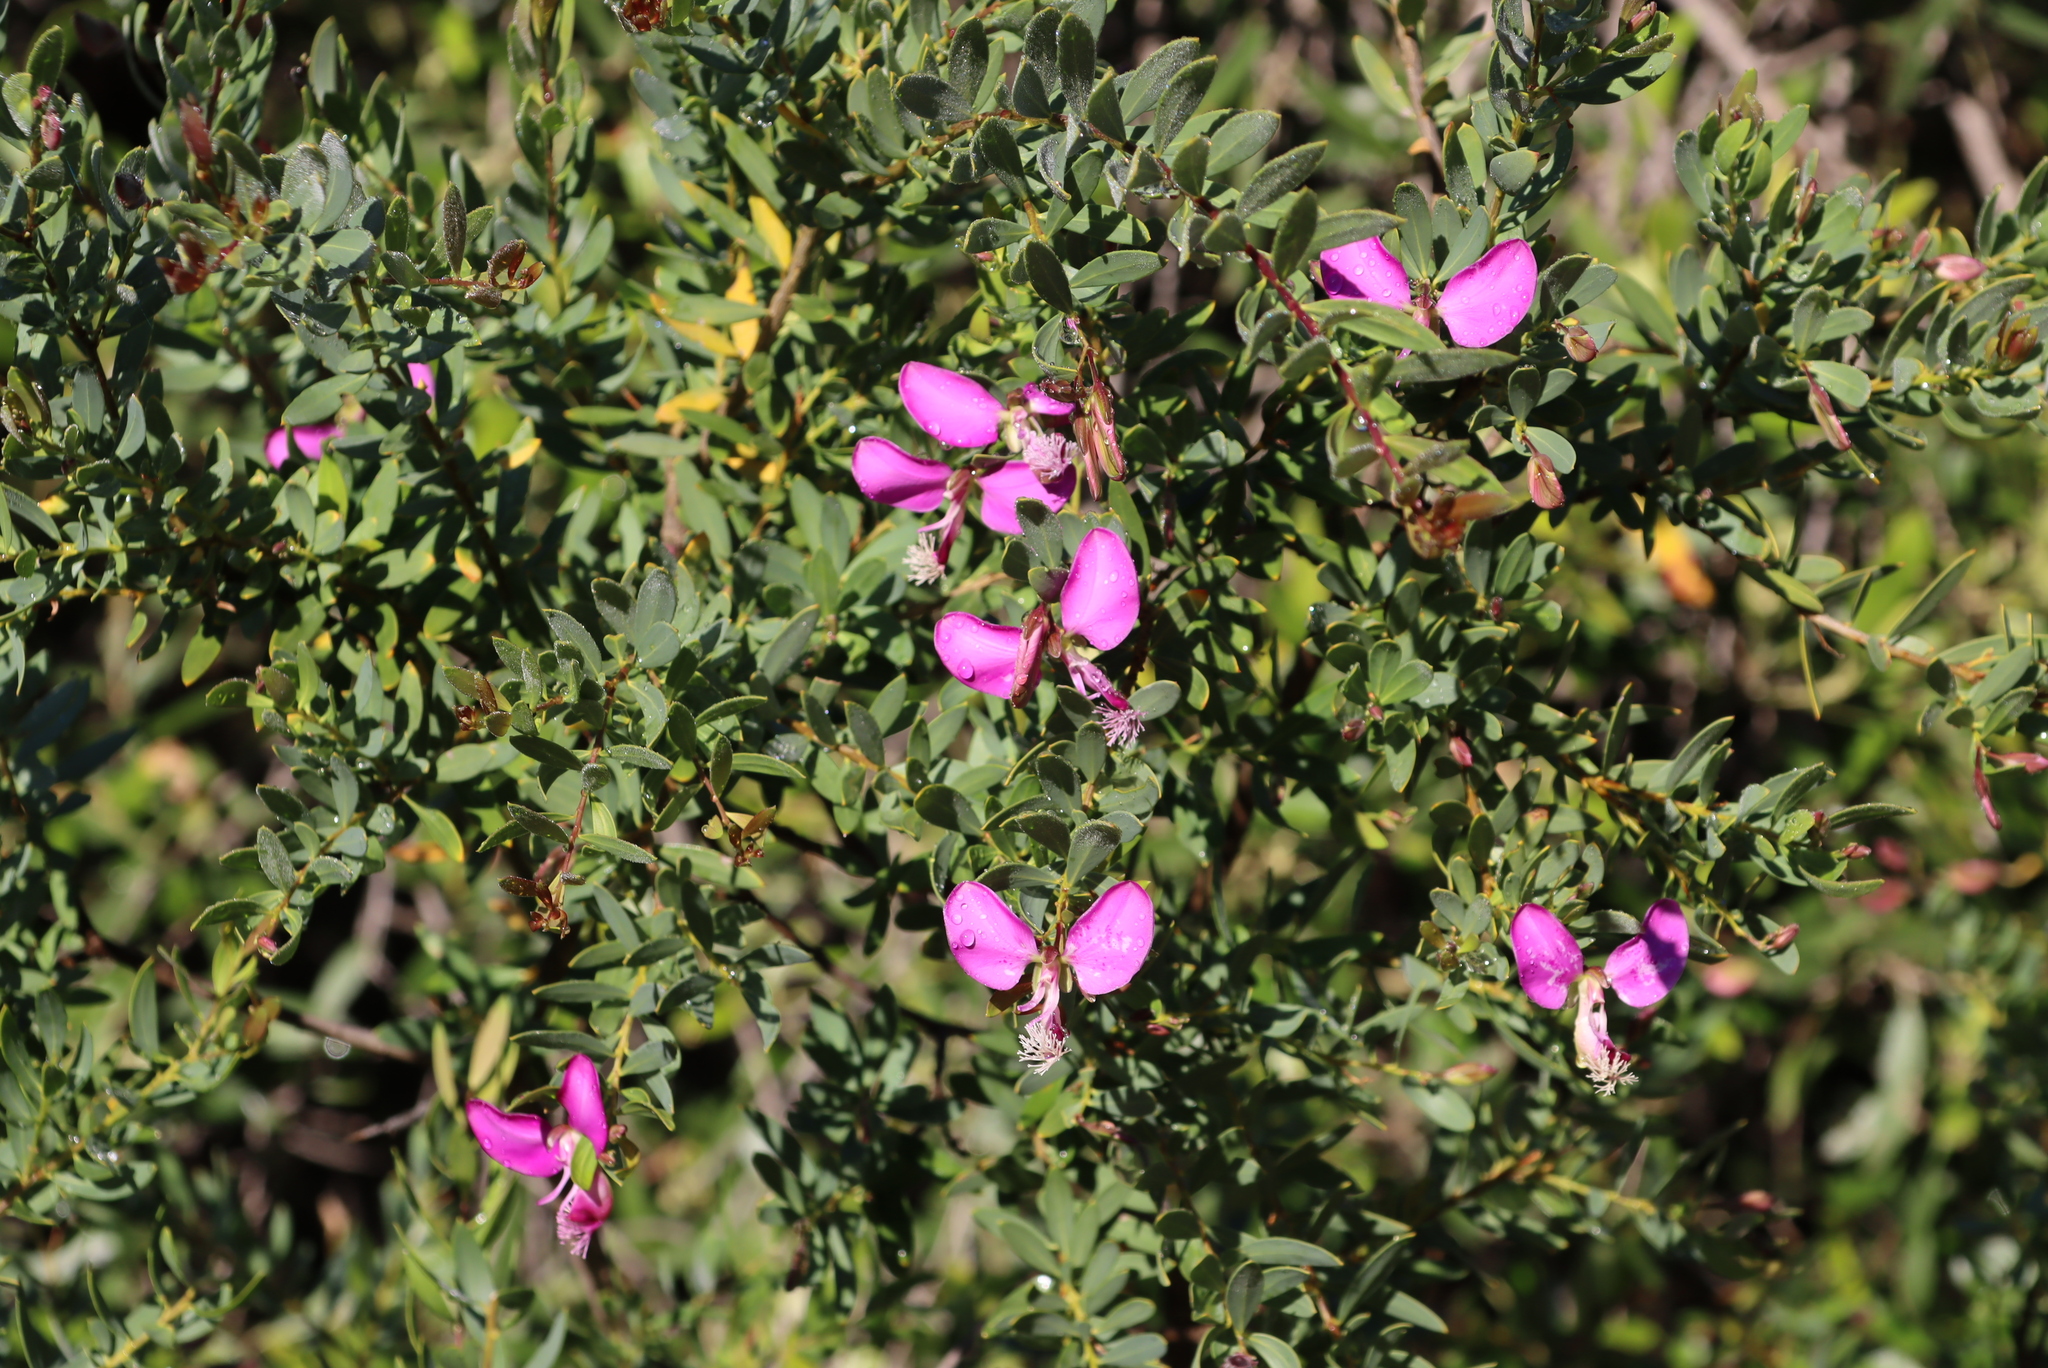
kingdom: Plantae
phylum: Tracheophyta
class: Magnoliopsida
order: Fabales
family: Polygalaceae
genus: Polygala
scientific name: Polygala myrtifolia
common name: Myrtle-leaf milkwort
